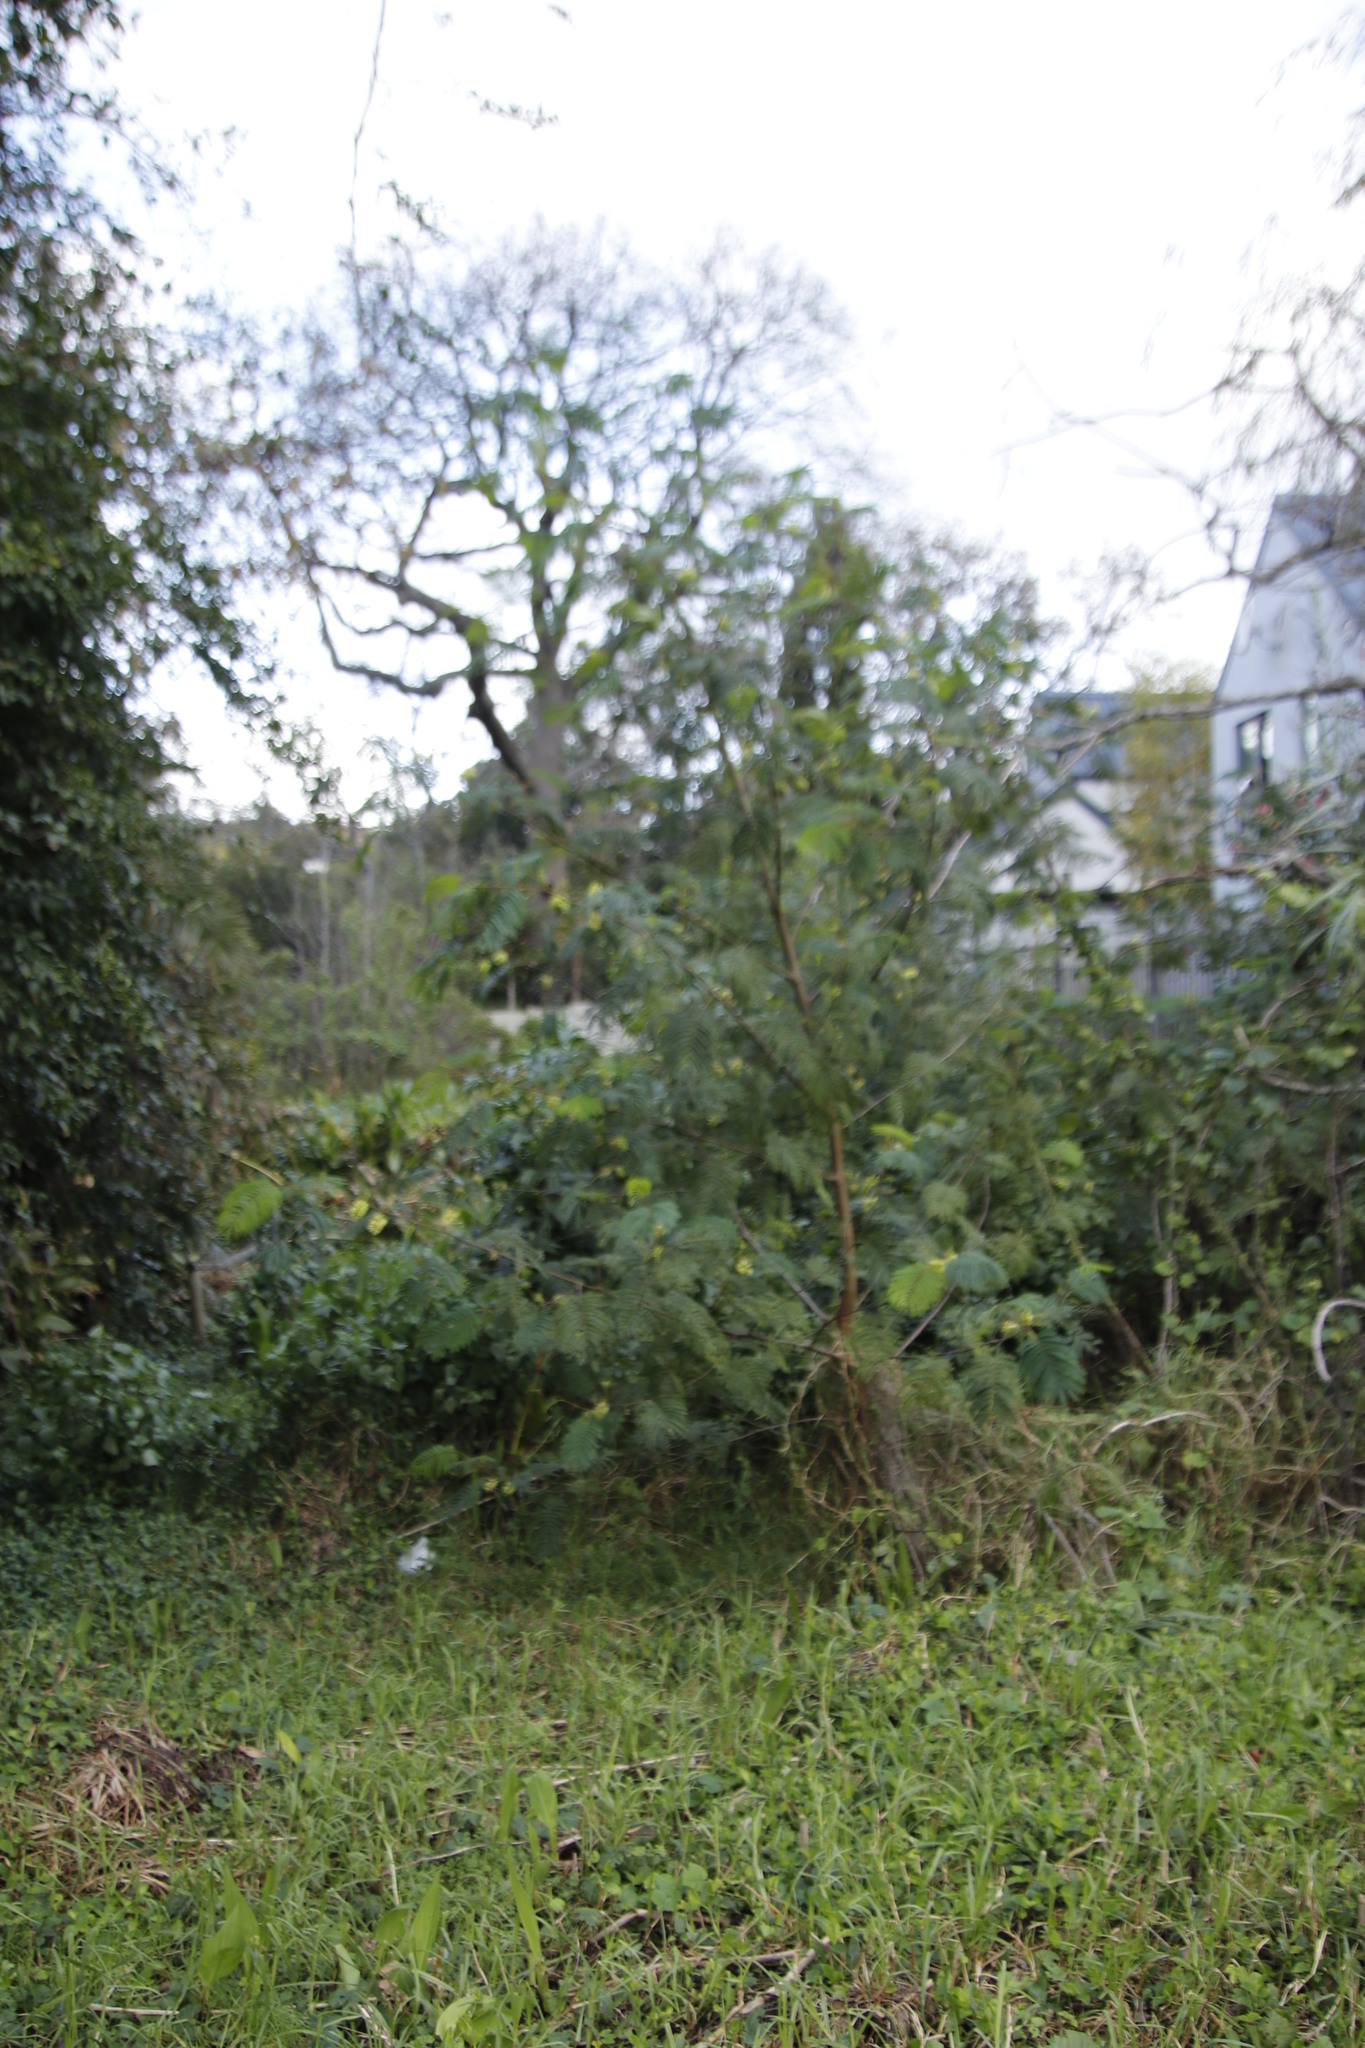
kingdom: Plantae
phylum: Tracheophyta
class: Magnoliopsida
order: Fabales
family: Fabaceae
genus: Paraserianthes
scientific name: Paraserianthes lophantha
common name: Plume albizia
